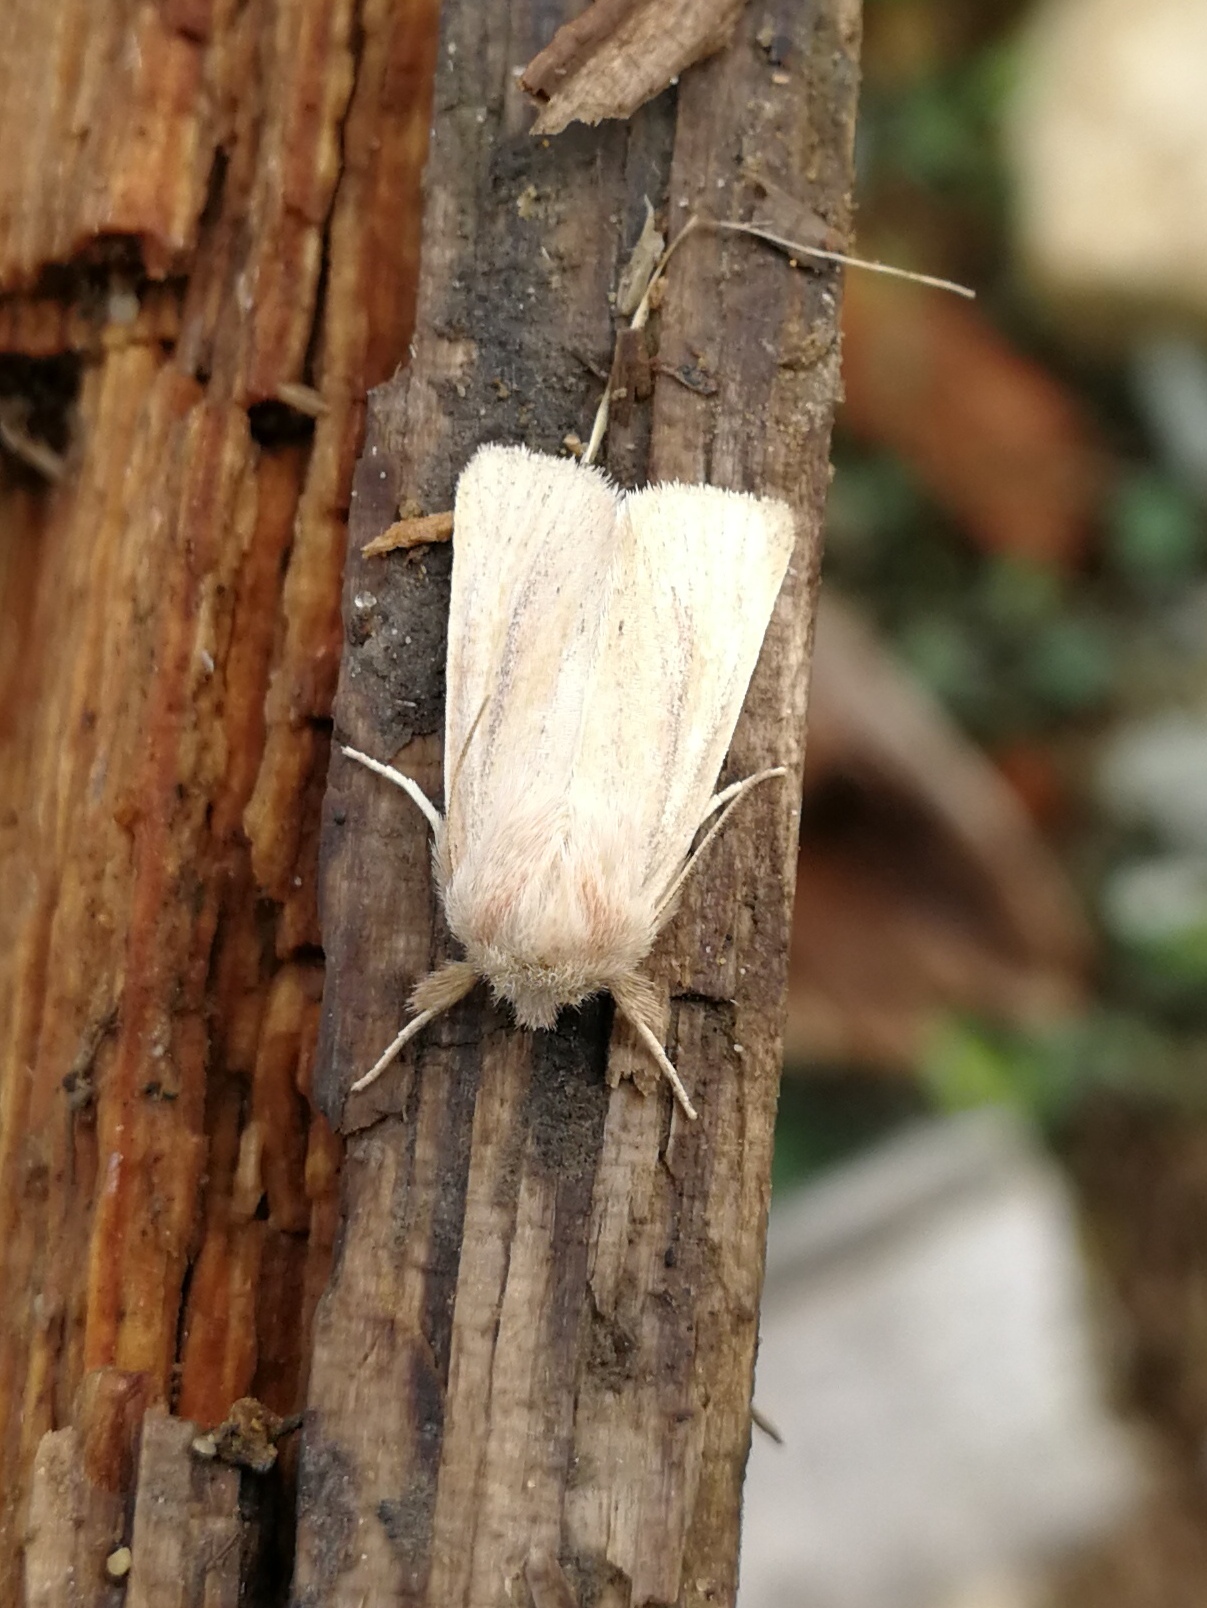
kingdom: Animalia
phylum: Arthropoda
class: Insecta
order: Lepidoptera
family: Noctuidae
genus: Denticucullus
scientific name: Denticucullus pygmina
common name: Small wainscot
